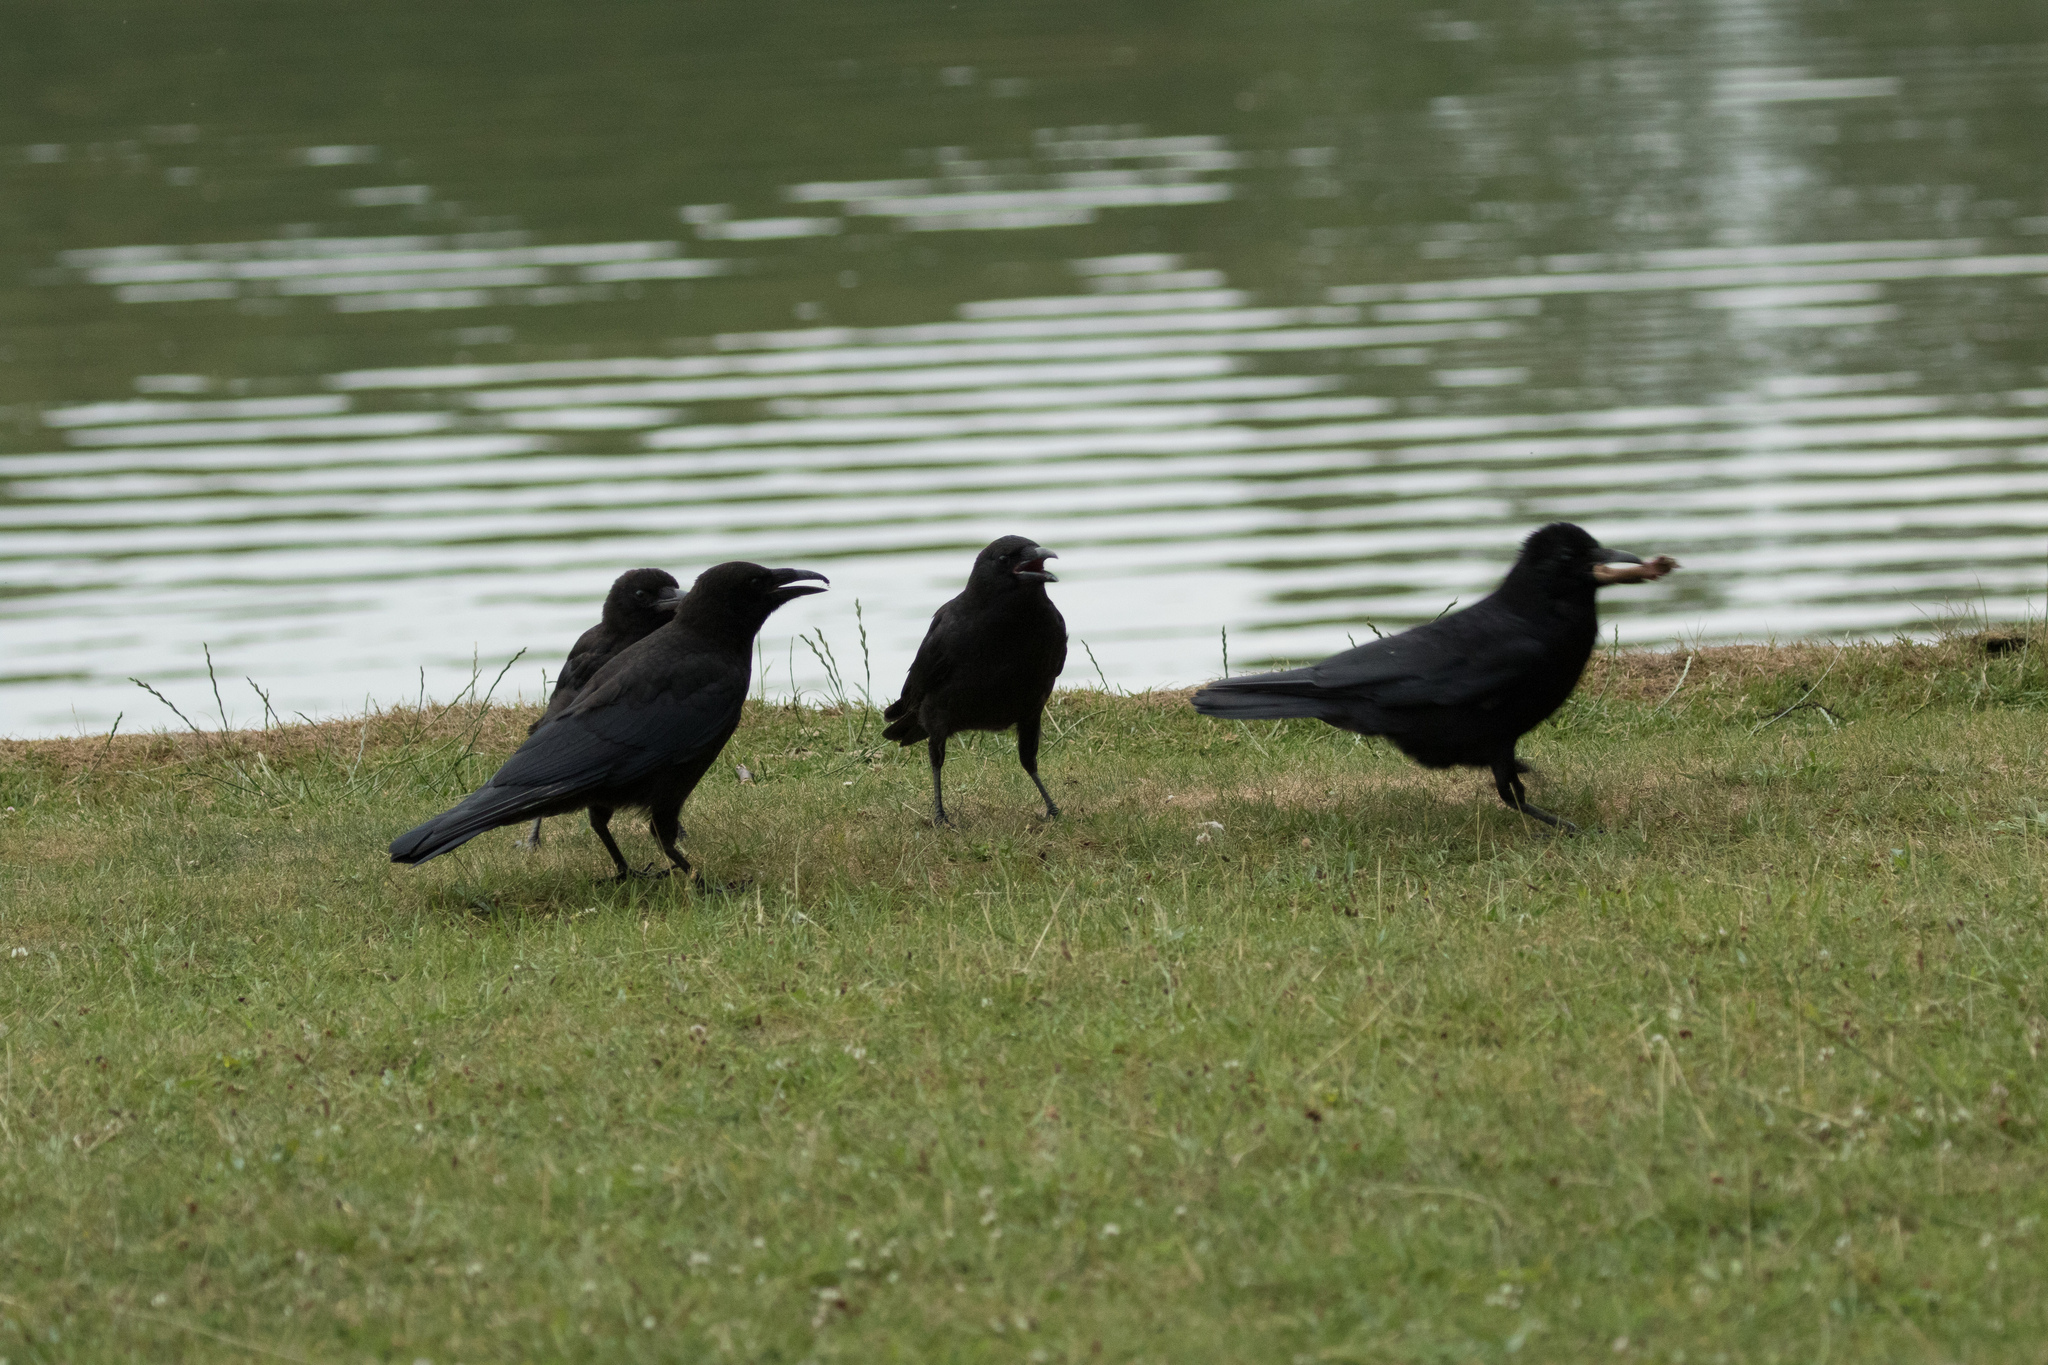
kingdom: Animalia
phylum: Chordata
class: Aves
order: Passeriformes
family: Corvidae
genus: Corvus
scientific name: Corvus corone
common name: Carrion crow
